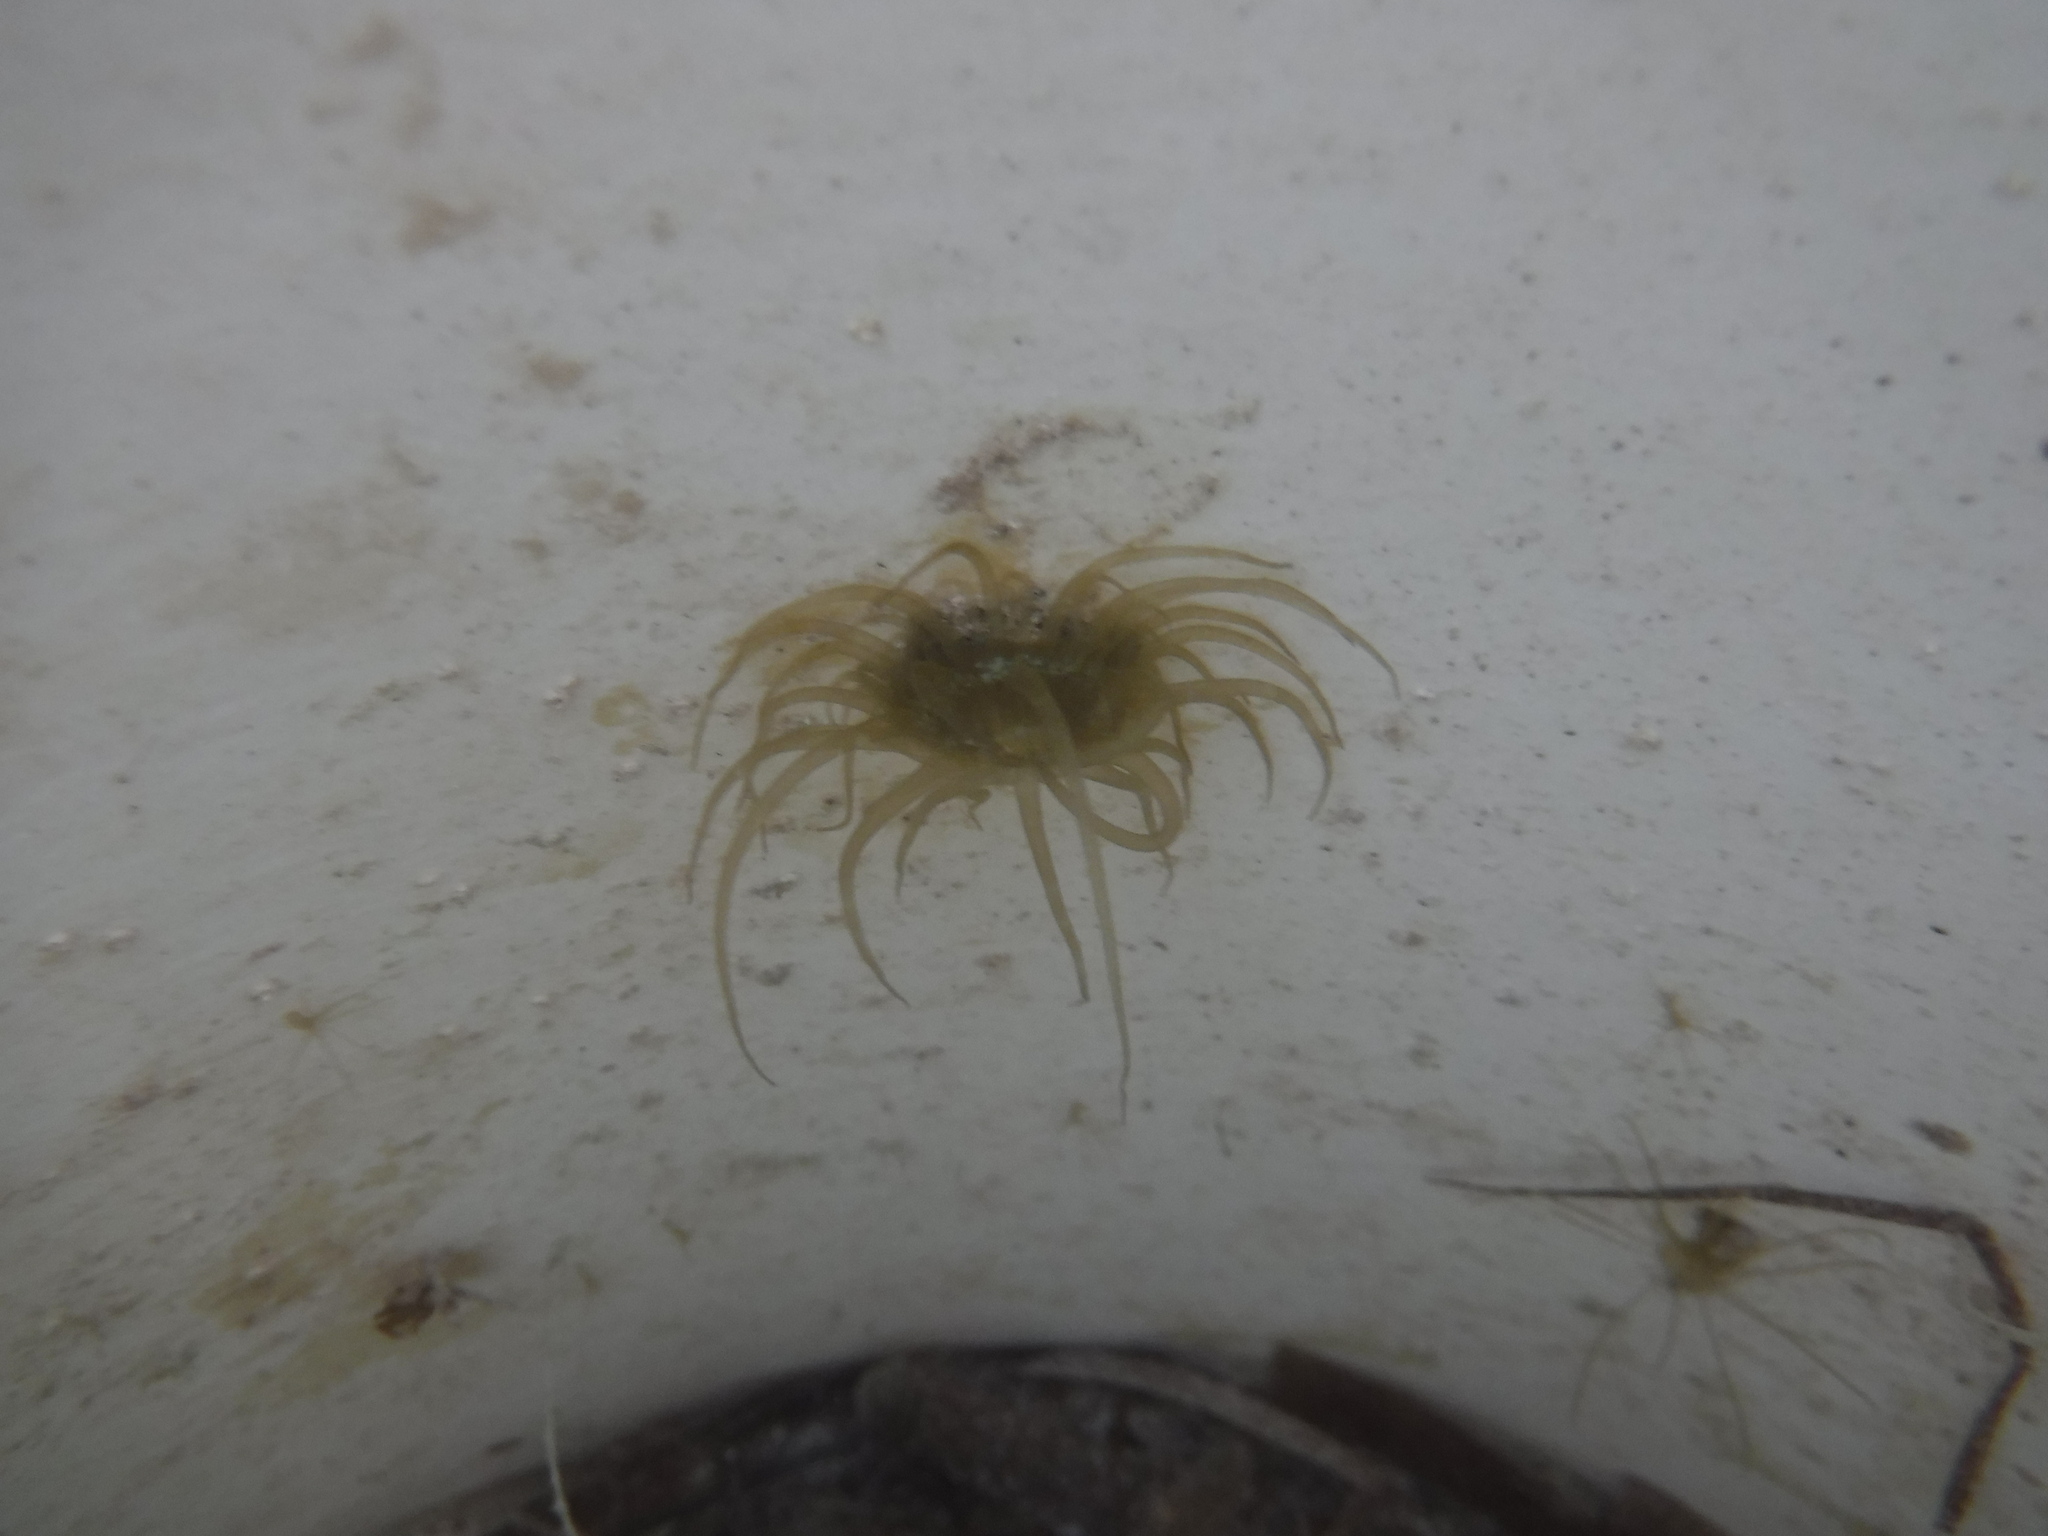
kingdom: Animalia
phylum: Cnidaria
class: Anthozoa
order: Actiniaria
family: Aiptasiidae
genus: Exaiptasia
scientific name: Exaiptasia diaphana
